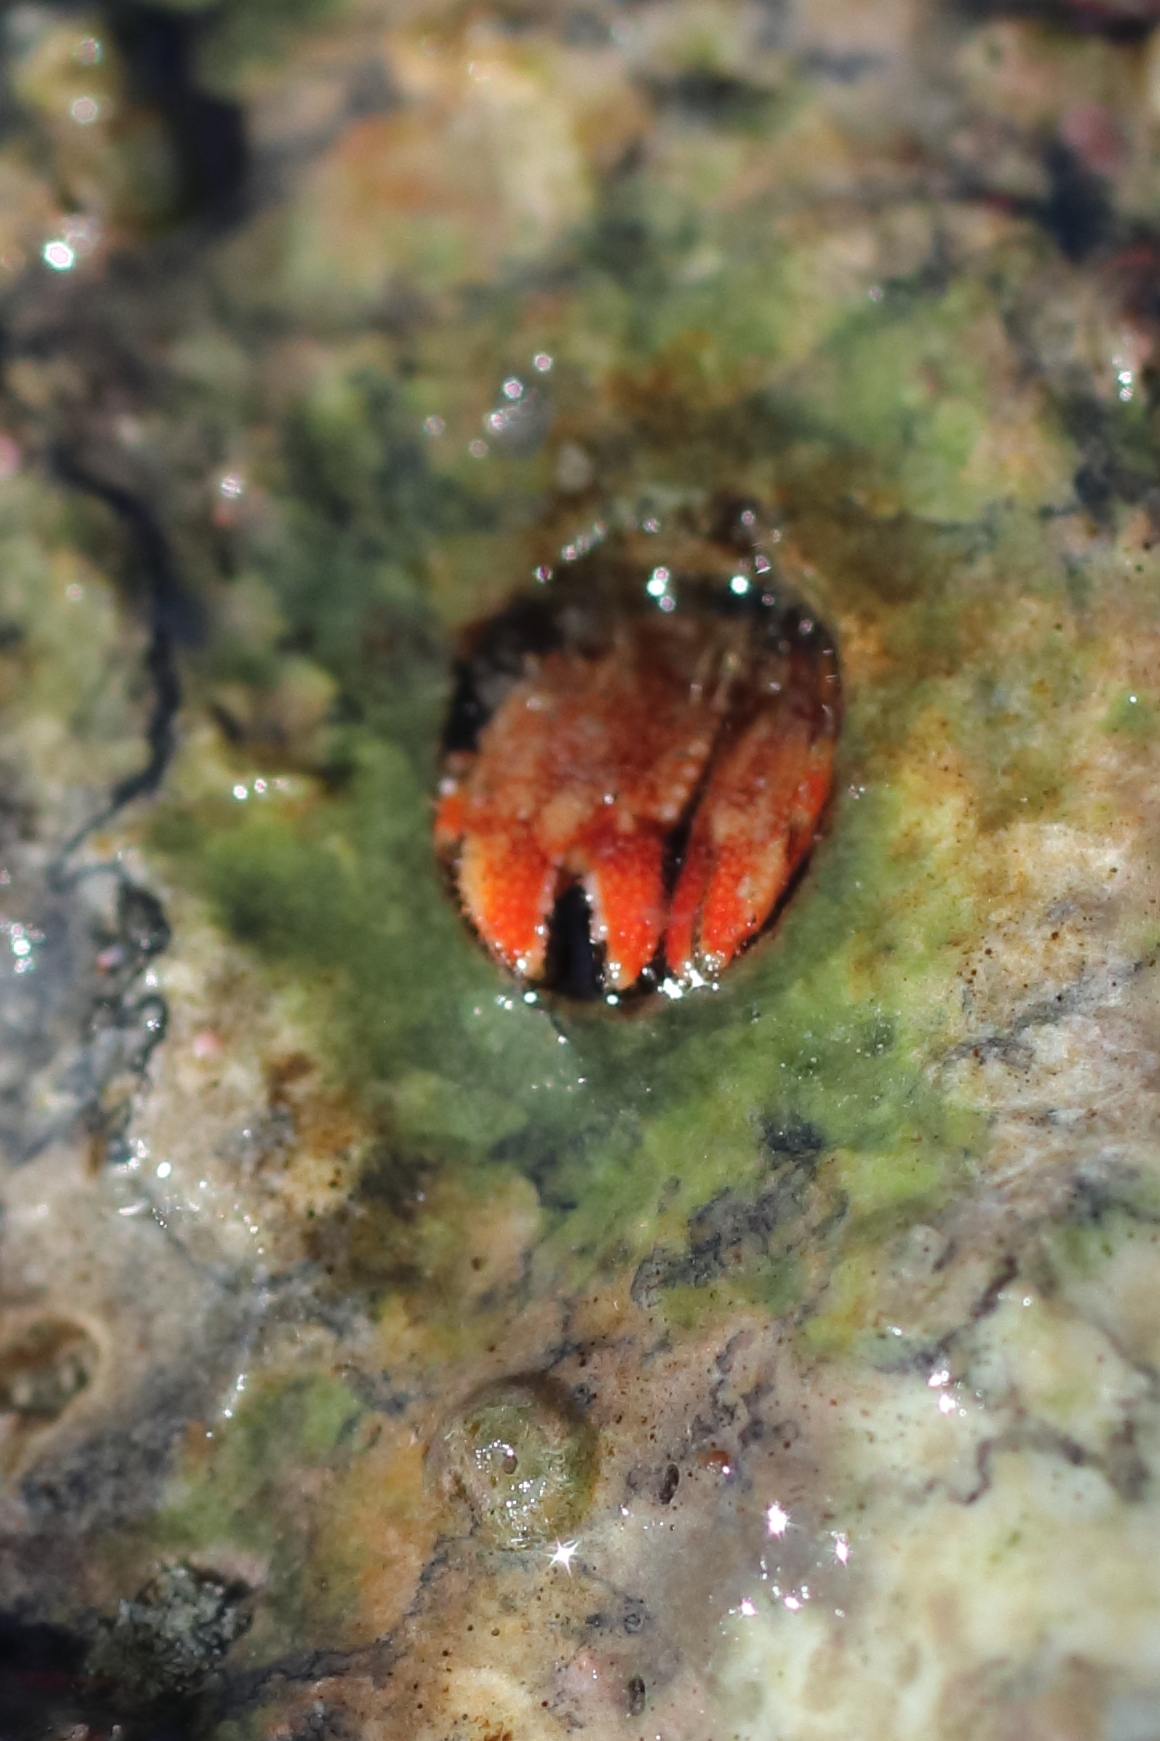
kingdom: Animalia
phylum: Arthropoda
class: Malacostraca
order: Decapoda
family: Paguridae
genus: Discorsopagurus
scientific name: Discorsopagurus schmitti
